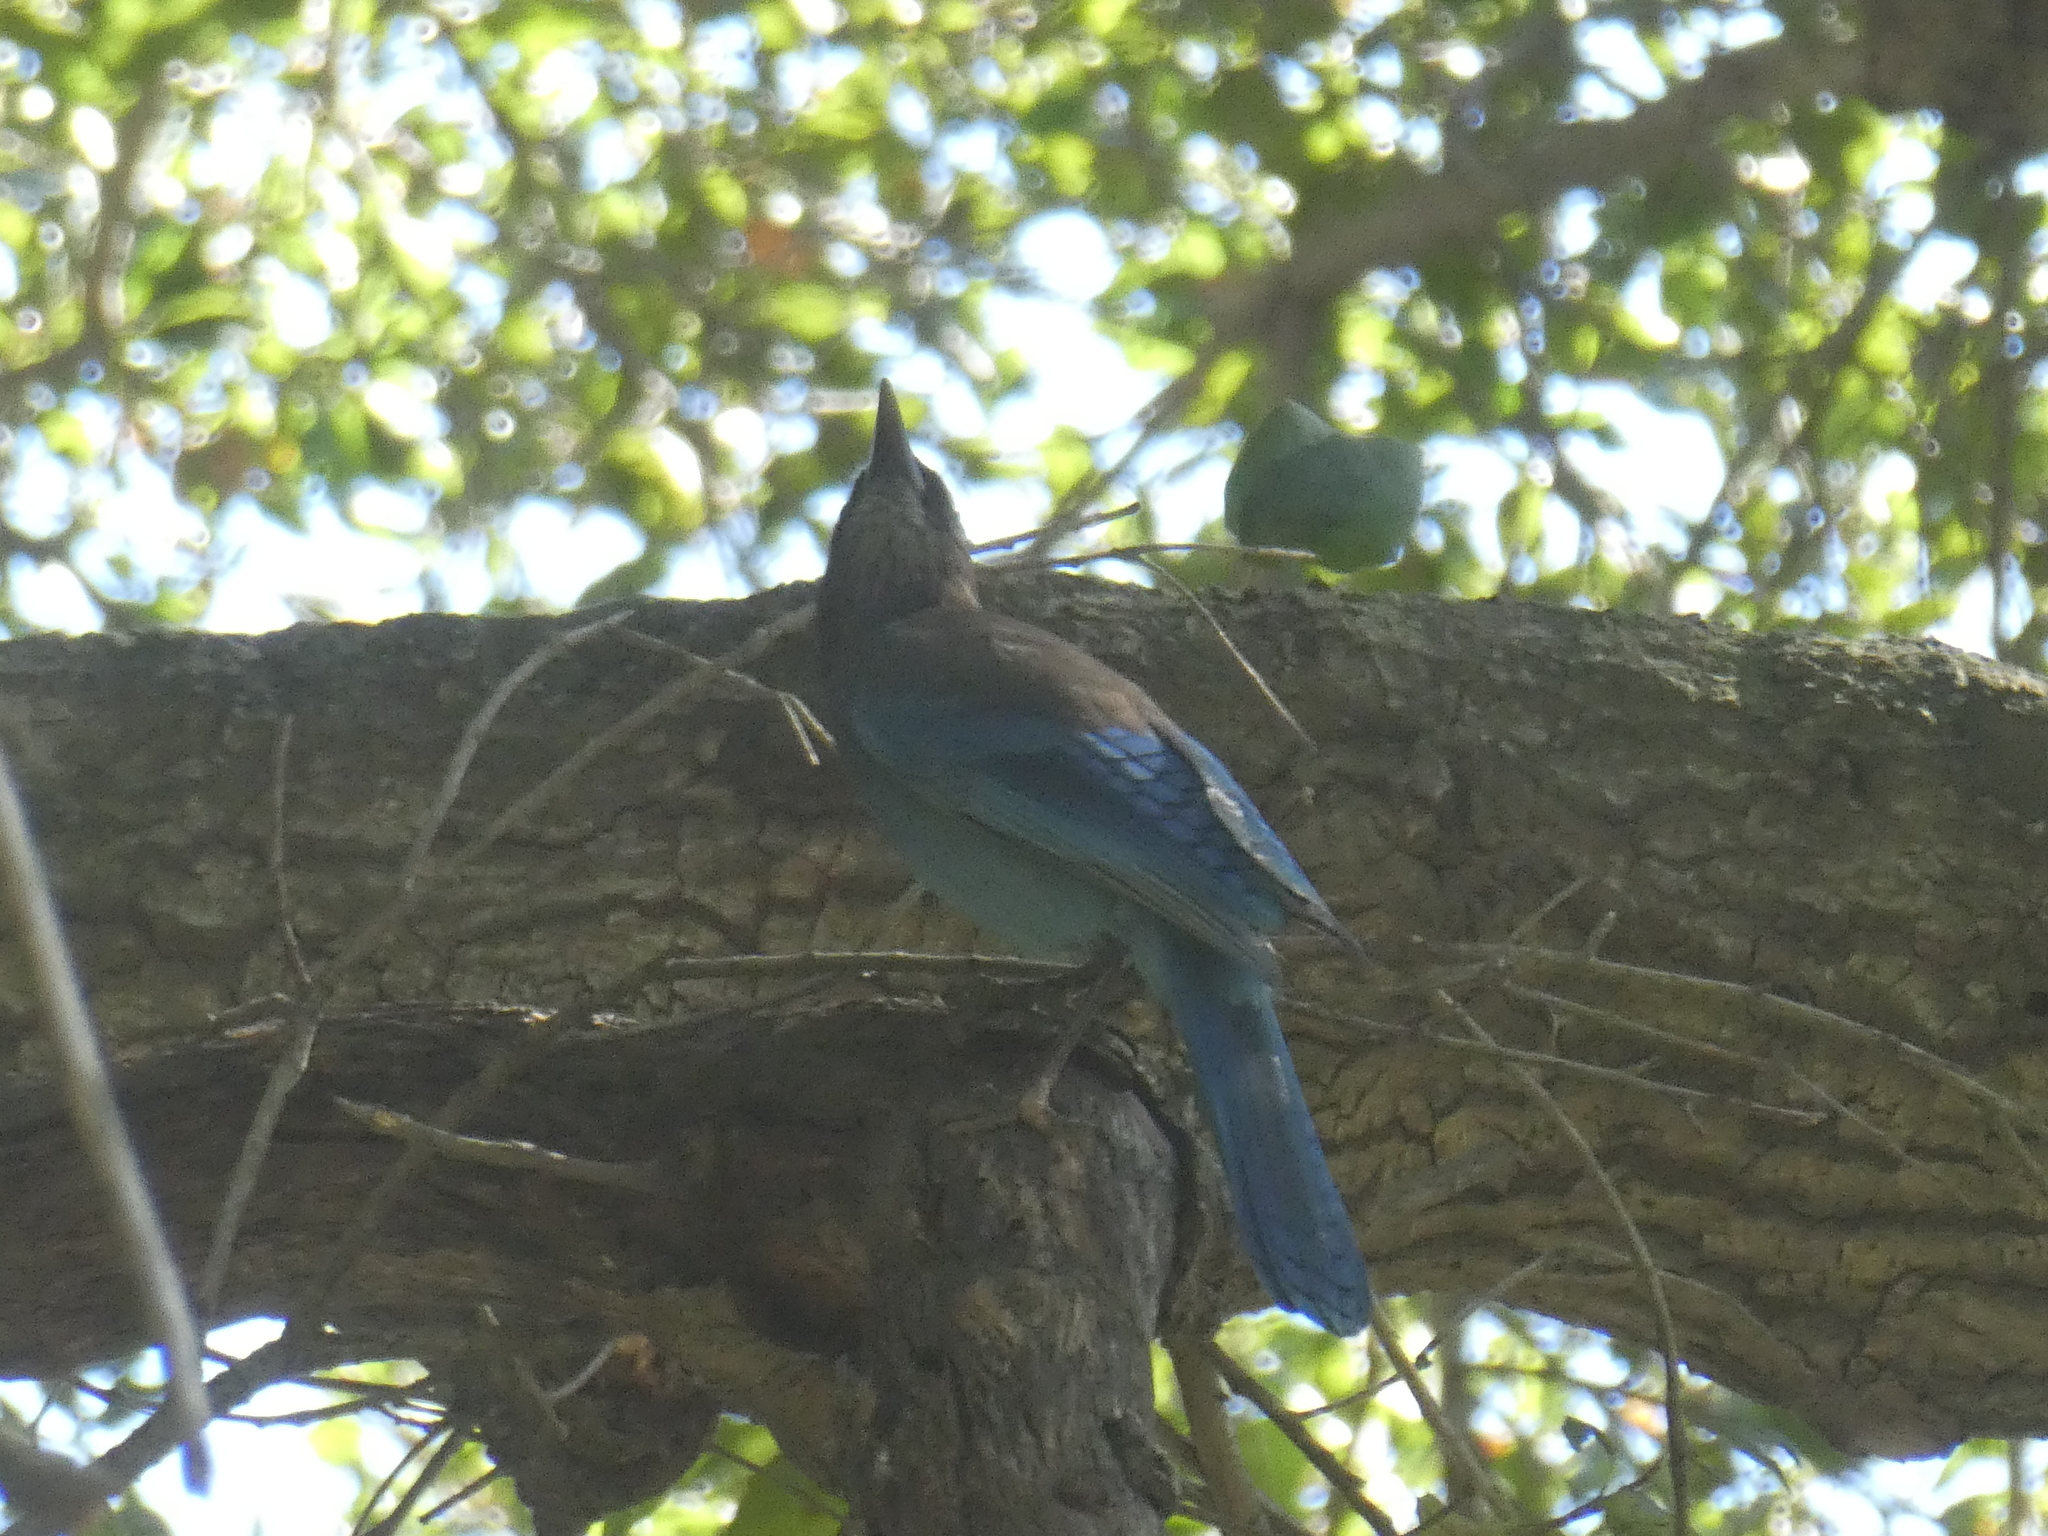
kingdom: Animalia
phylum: Chordata
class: Aves
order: Passeriformes
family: Corvidae
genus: Cyanocitta
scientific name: Cyanocitta stelleri
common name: Steller's jay
